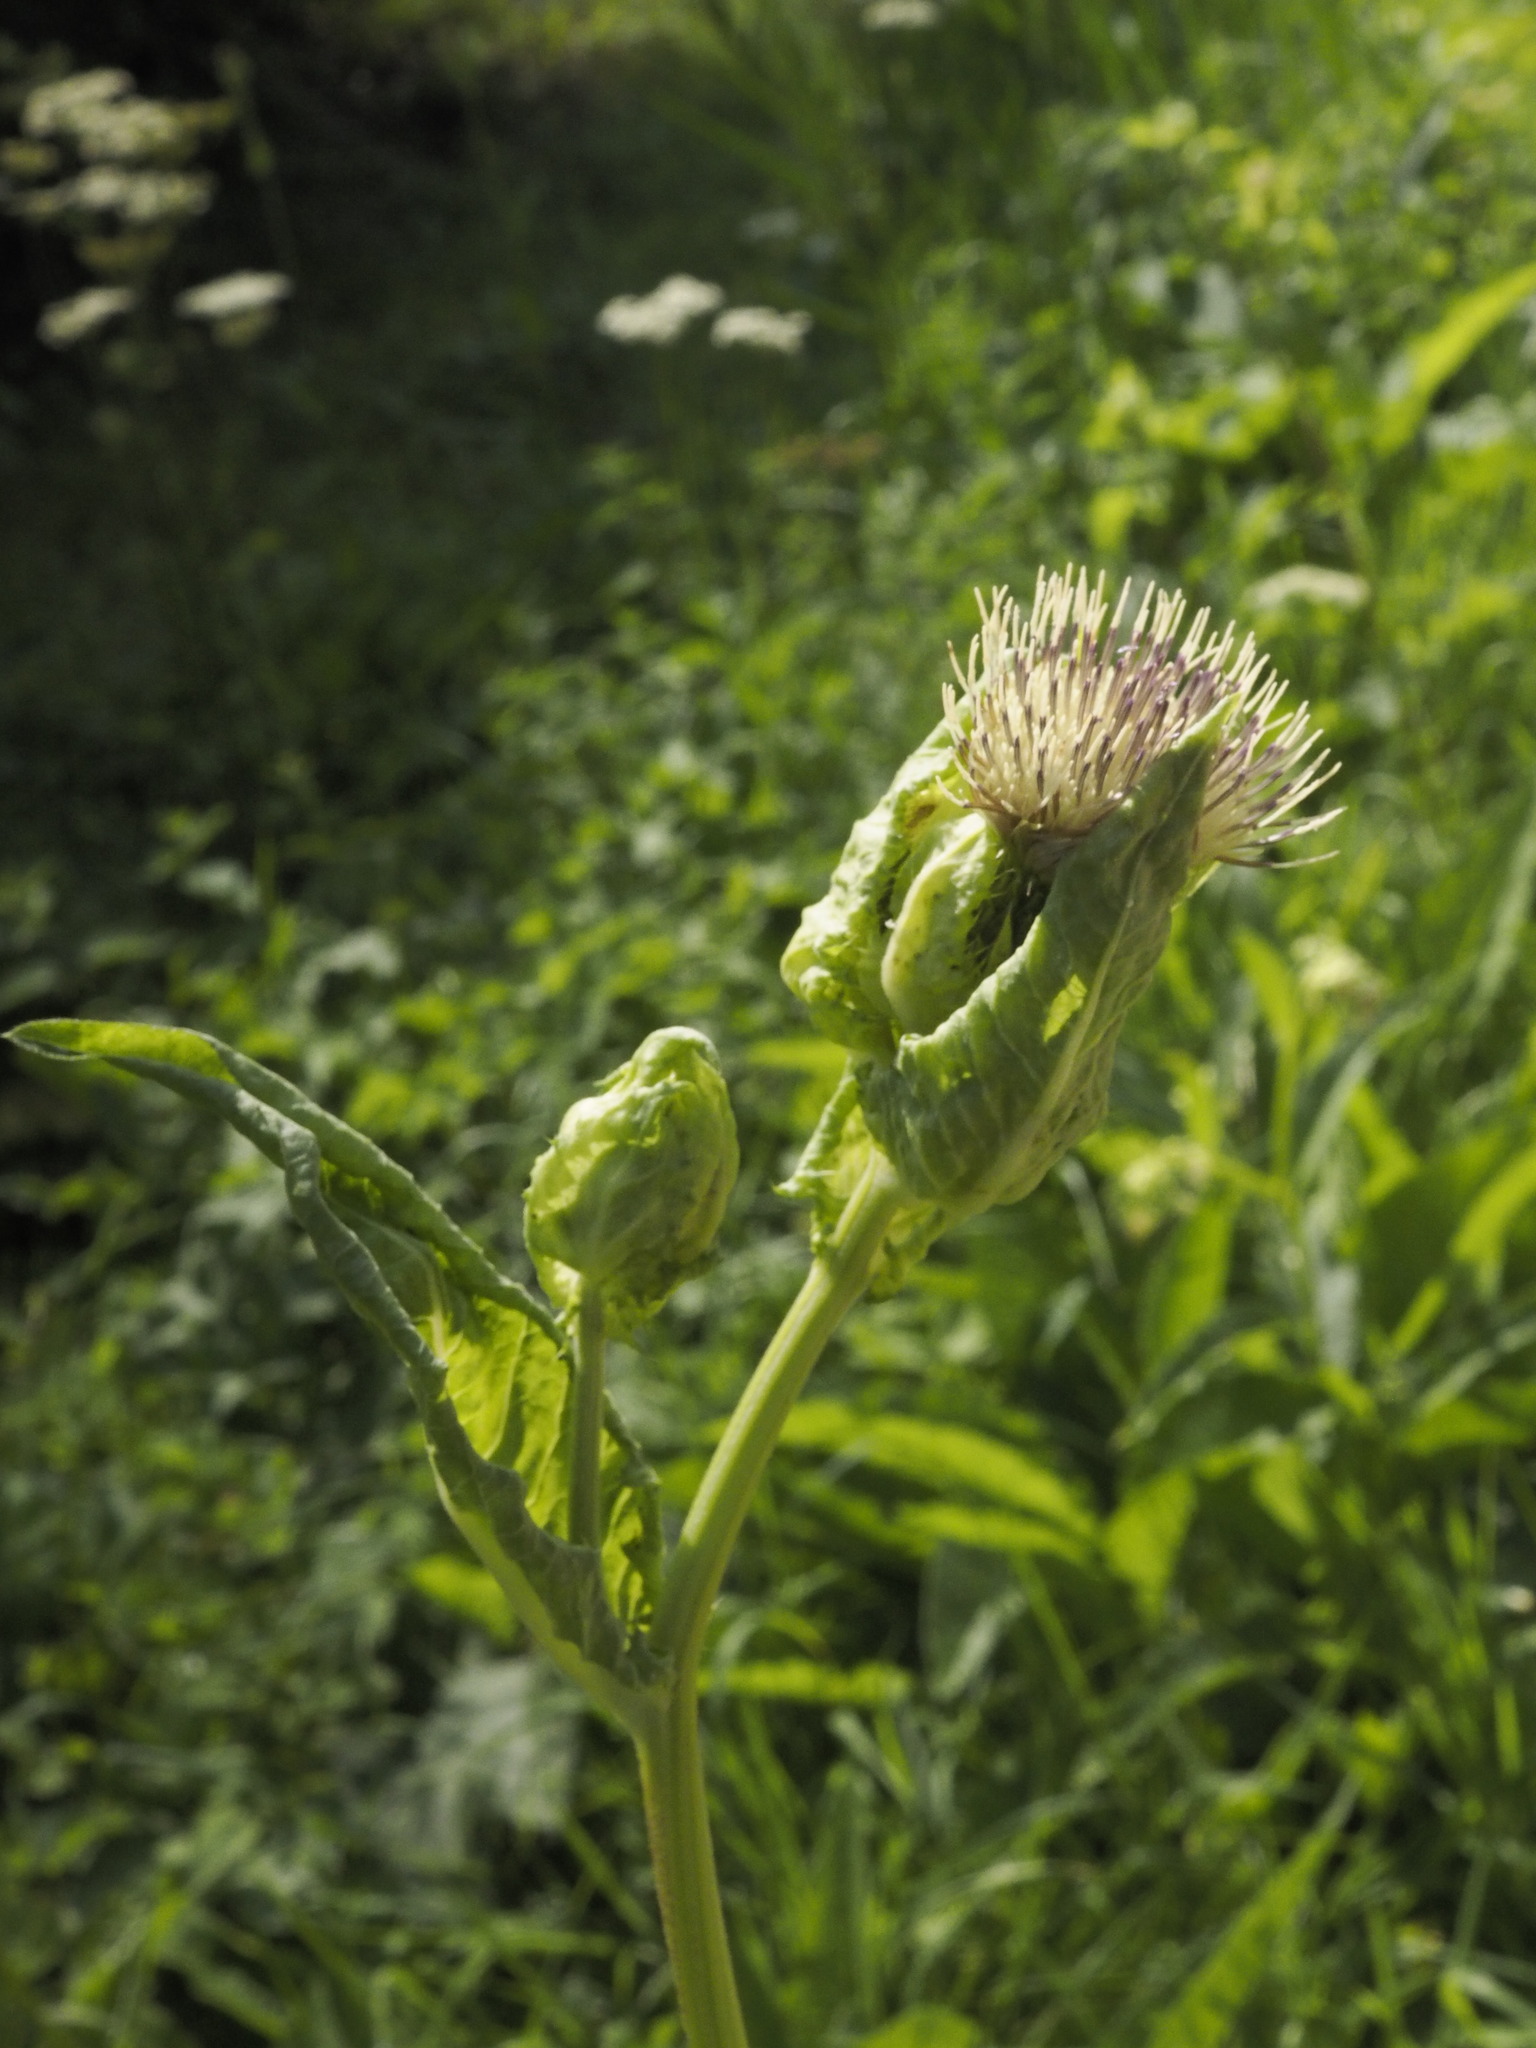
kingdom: Plantae
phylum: Tracheophyta
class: Magnoliopsida
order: Asterales
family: Asteraceae
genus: Cirsium
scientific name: Cirsium oleraceum
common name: Cabbage thistle
